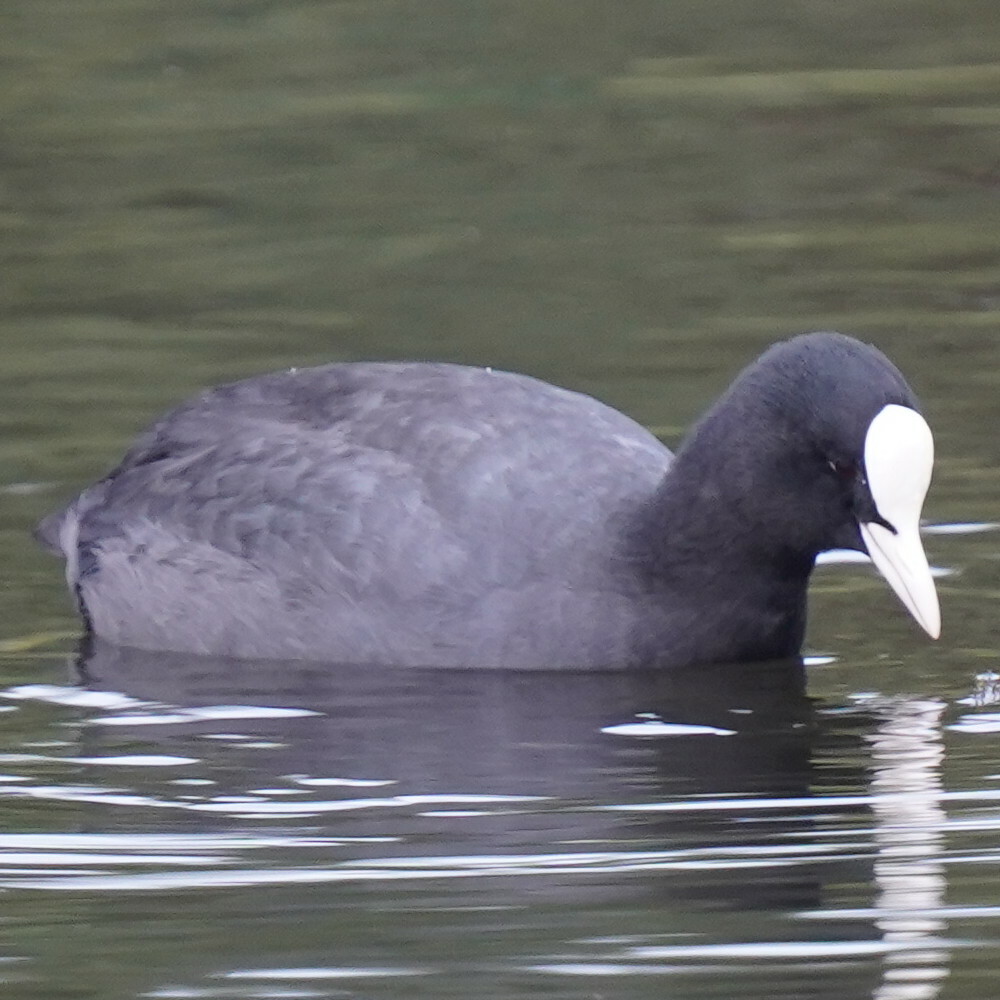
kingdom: Animalia
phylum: Chordata
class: Aves
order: Gruiformes
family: Rallidae
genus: Fulica
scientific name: Fulica atra
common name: Eurasian coot
